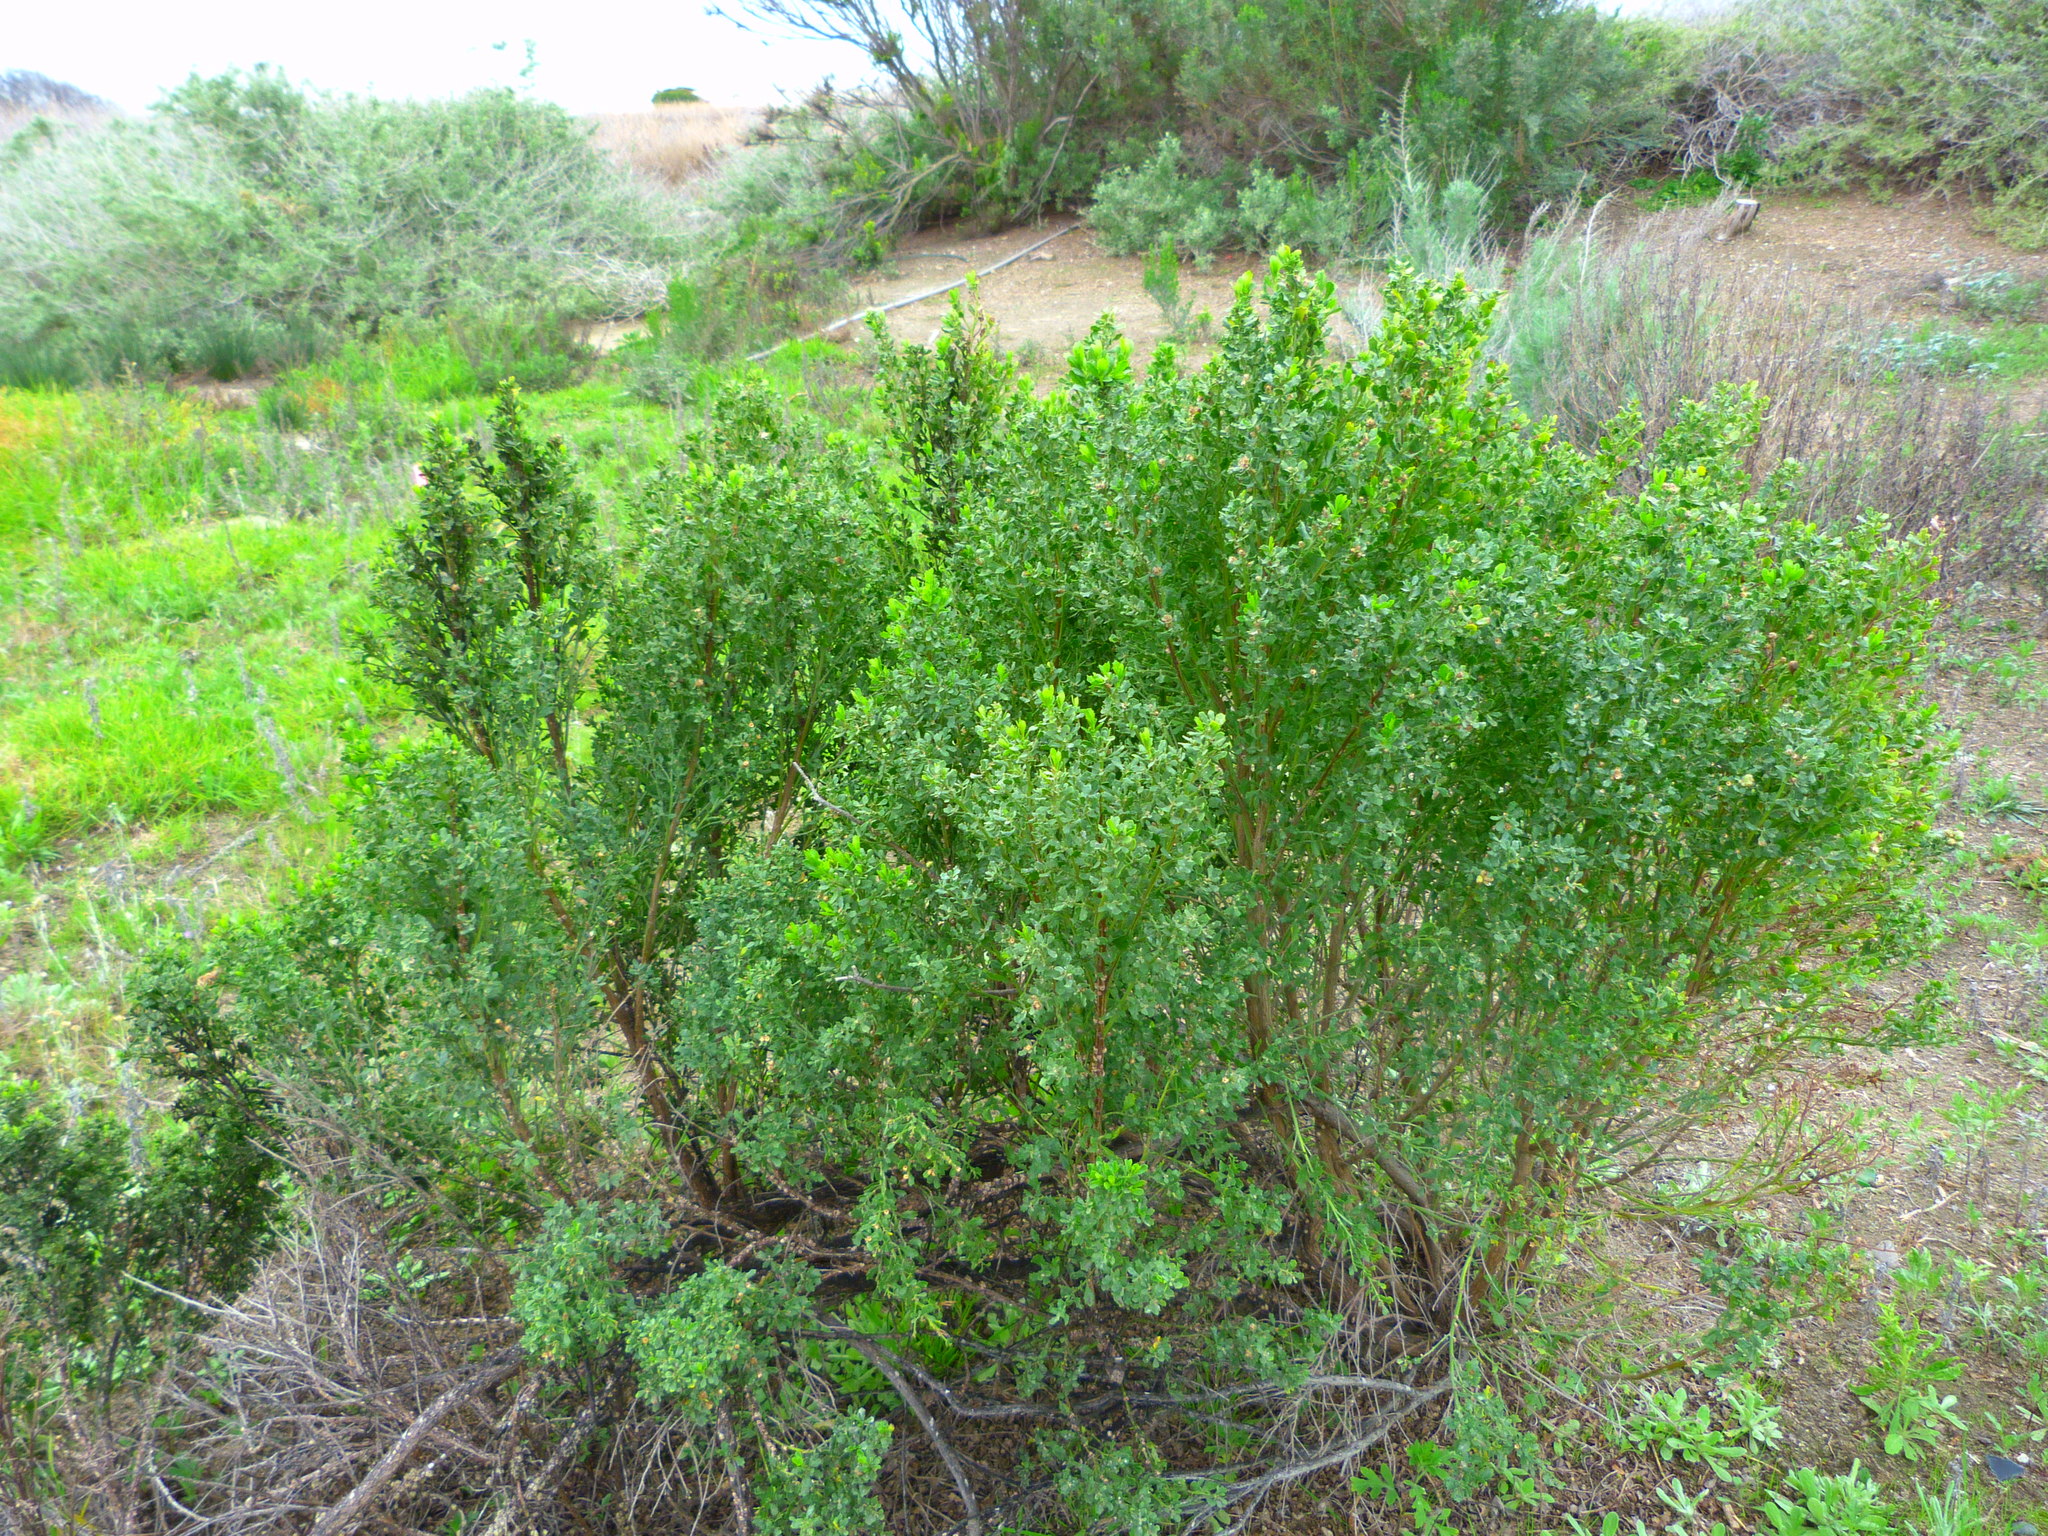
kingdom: Plantae
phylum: Tracheophyta
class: Magnoliopsida
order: Asterales
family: Asteraceae
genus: Baccharis
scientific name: Baccharis pilularis
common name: Coyotebrush
